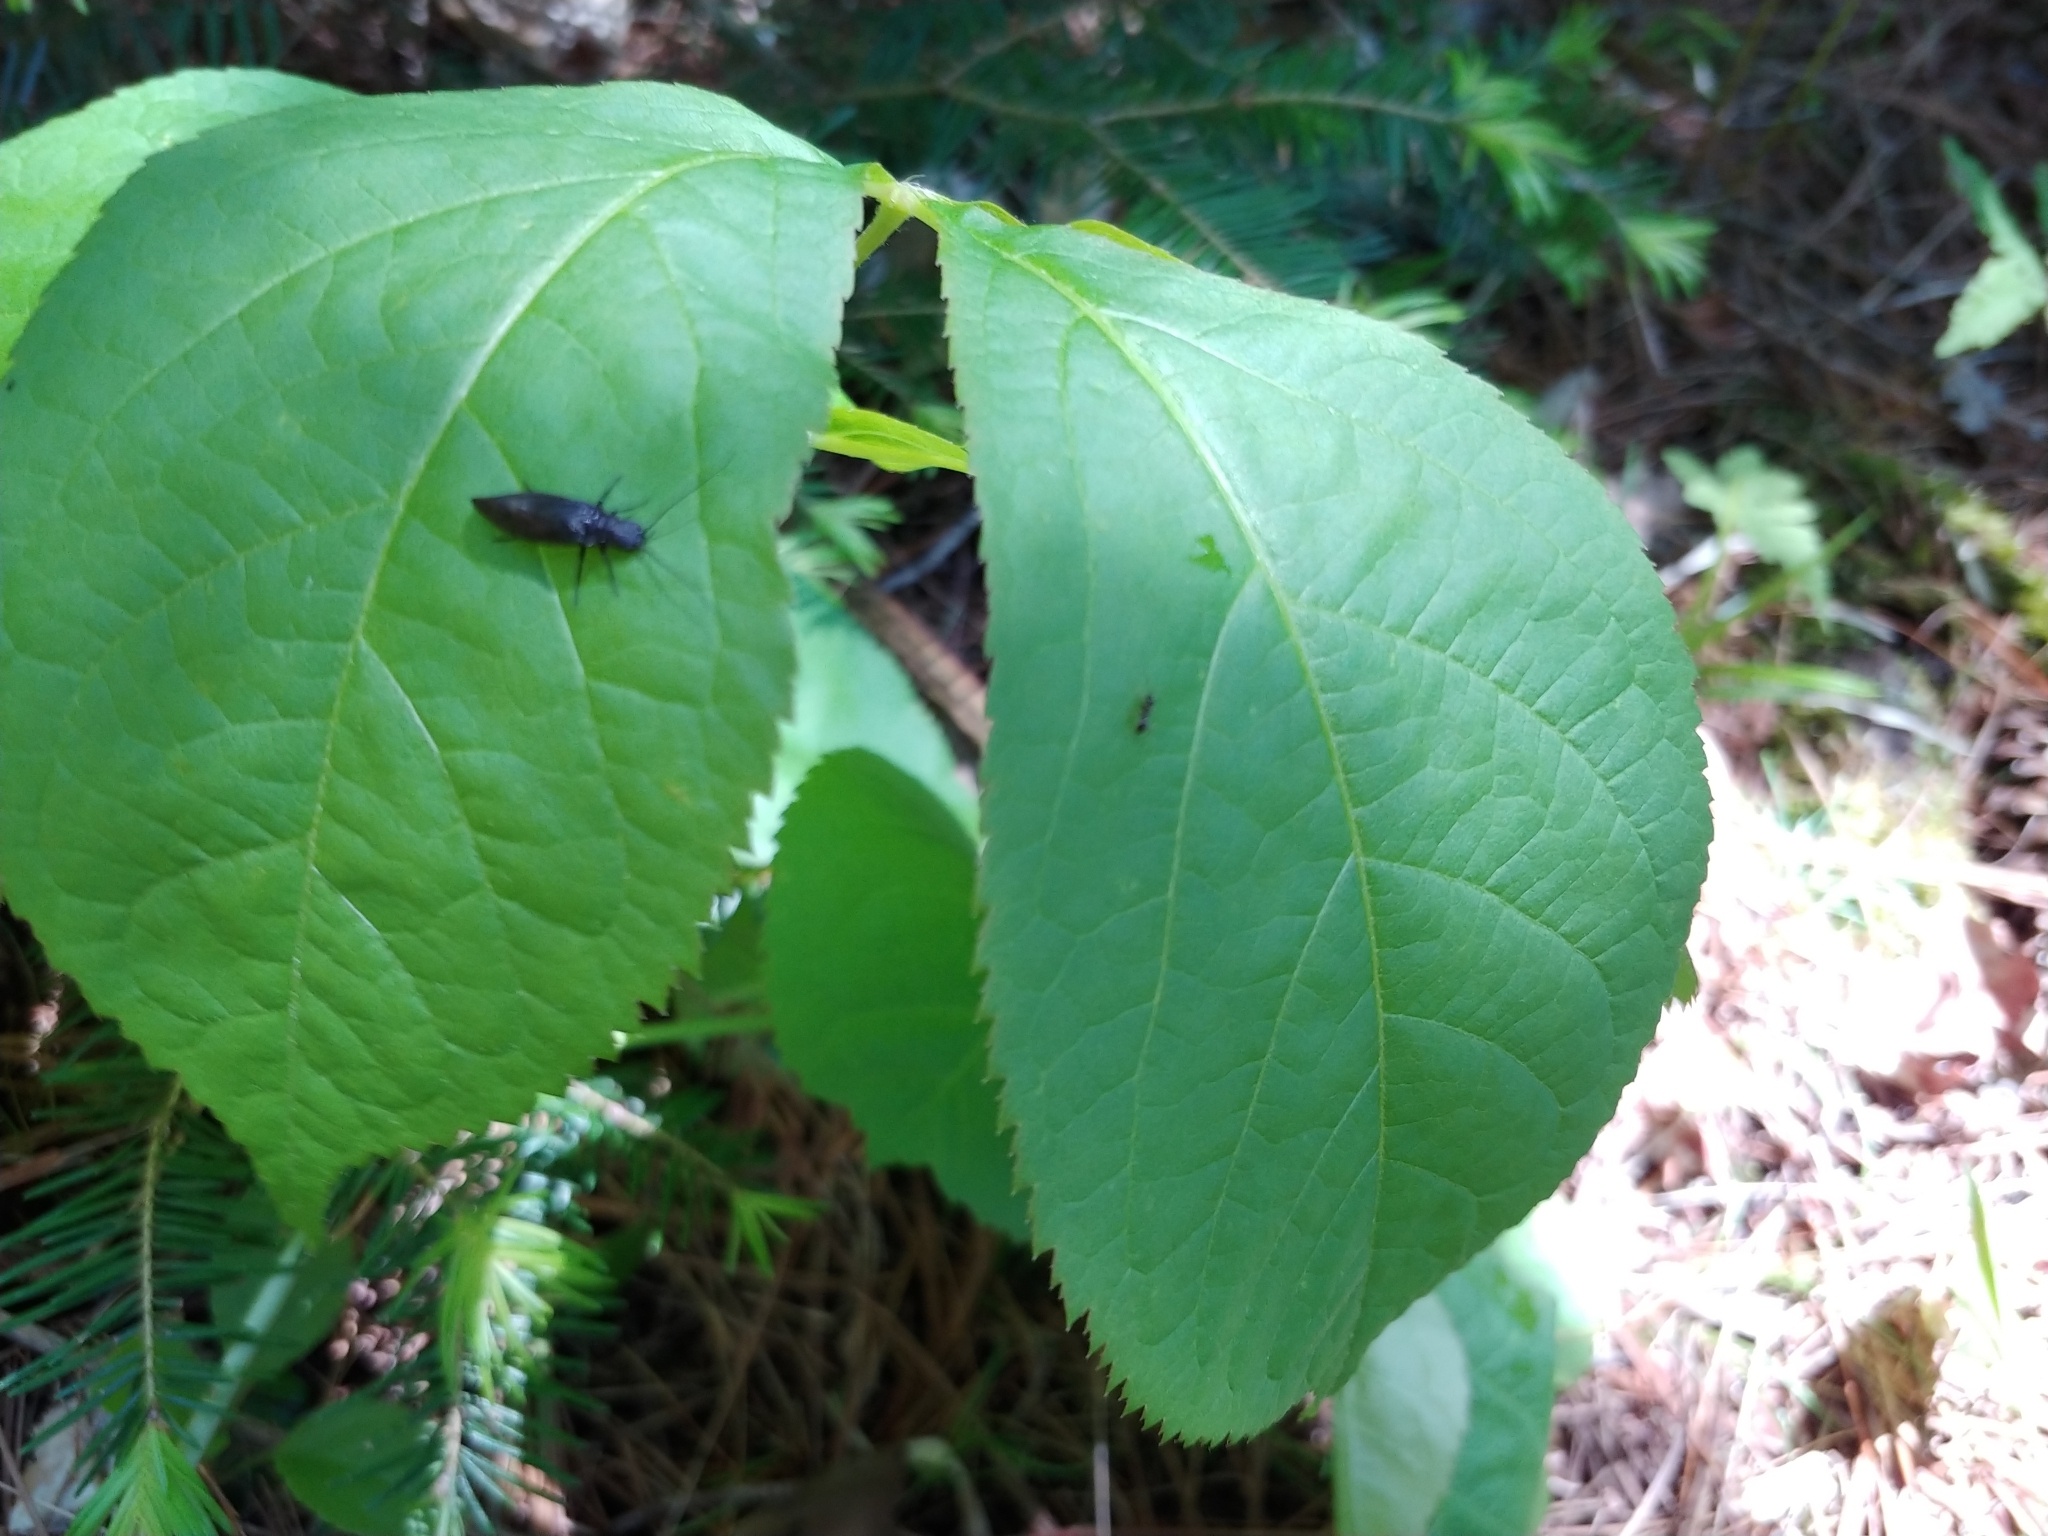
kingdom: Animalia
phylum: Arthropoda
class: Insecta
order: Megaloptera
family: Sialidae
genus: Sialis
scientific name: Sialis
